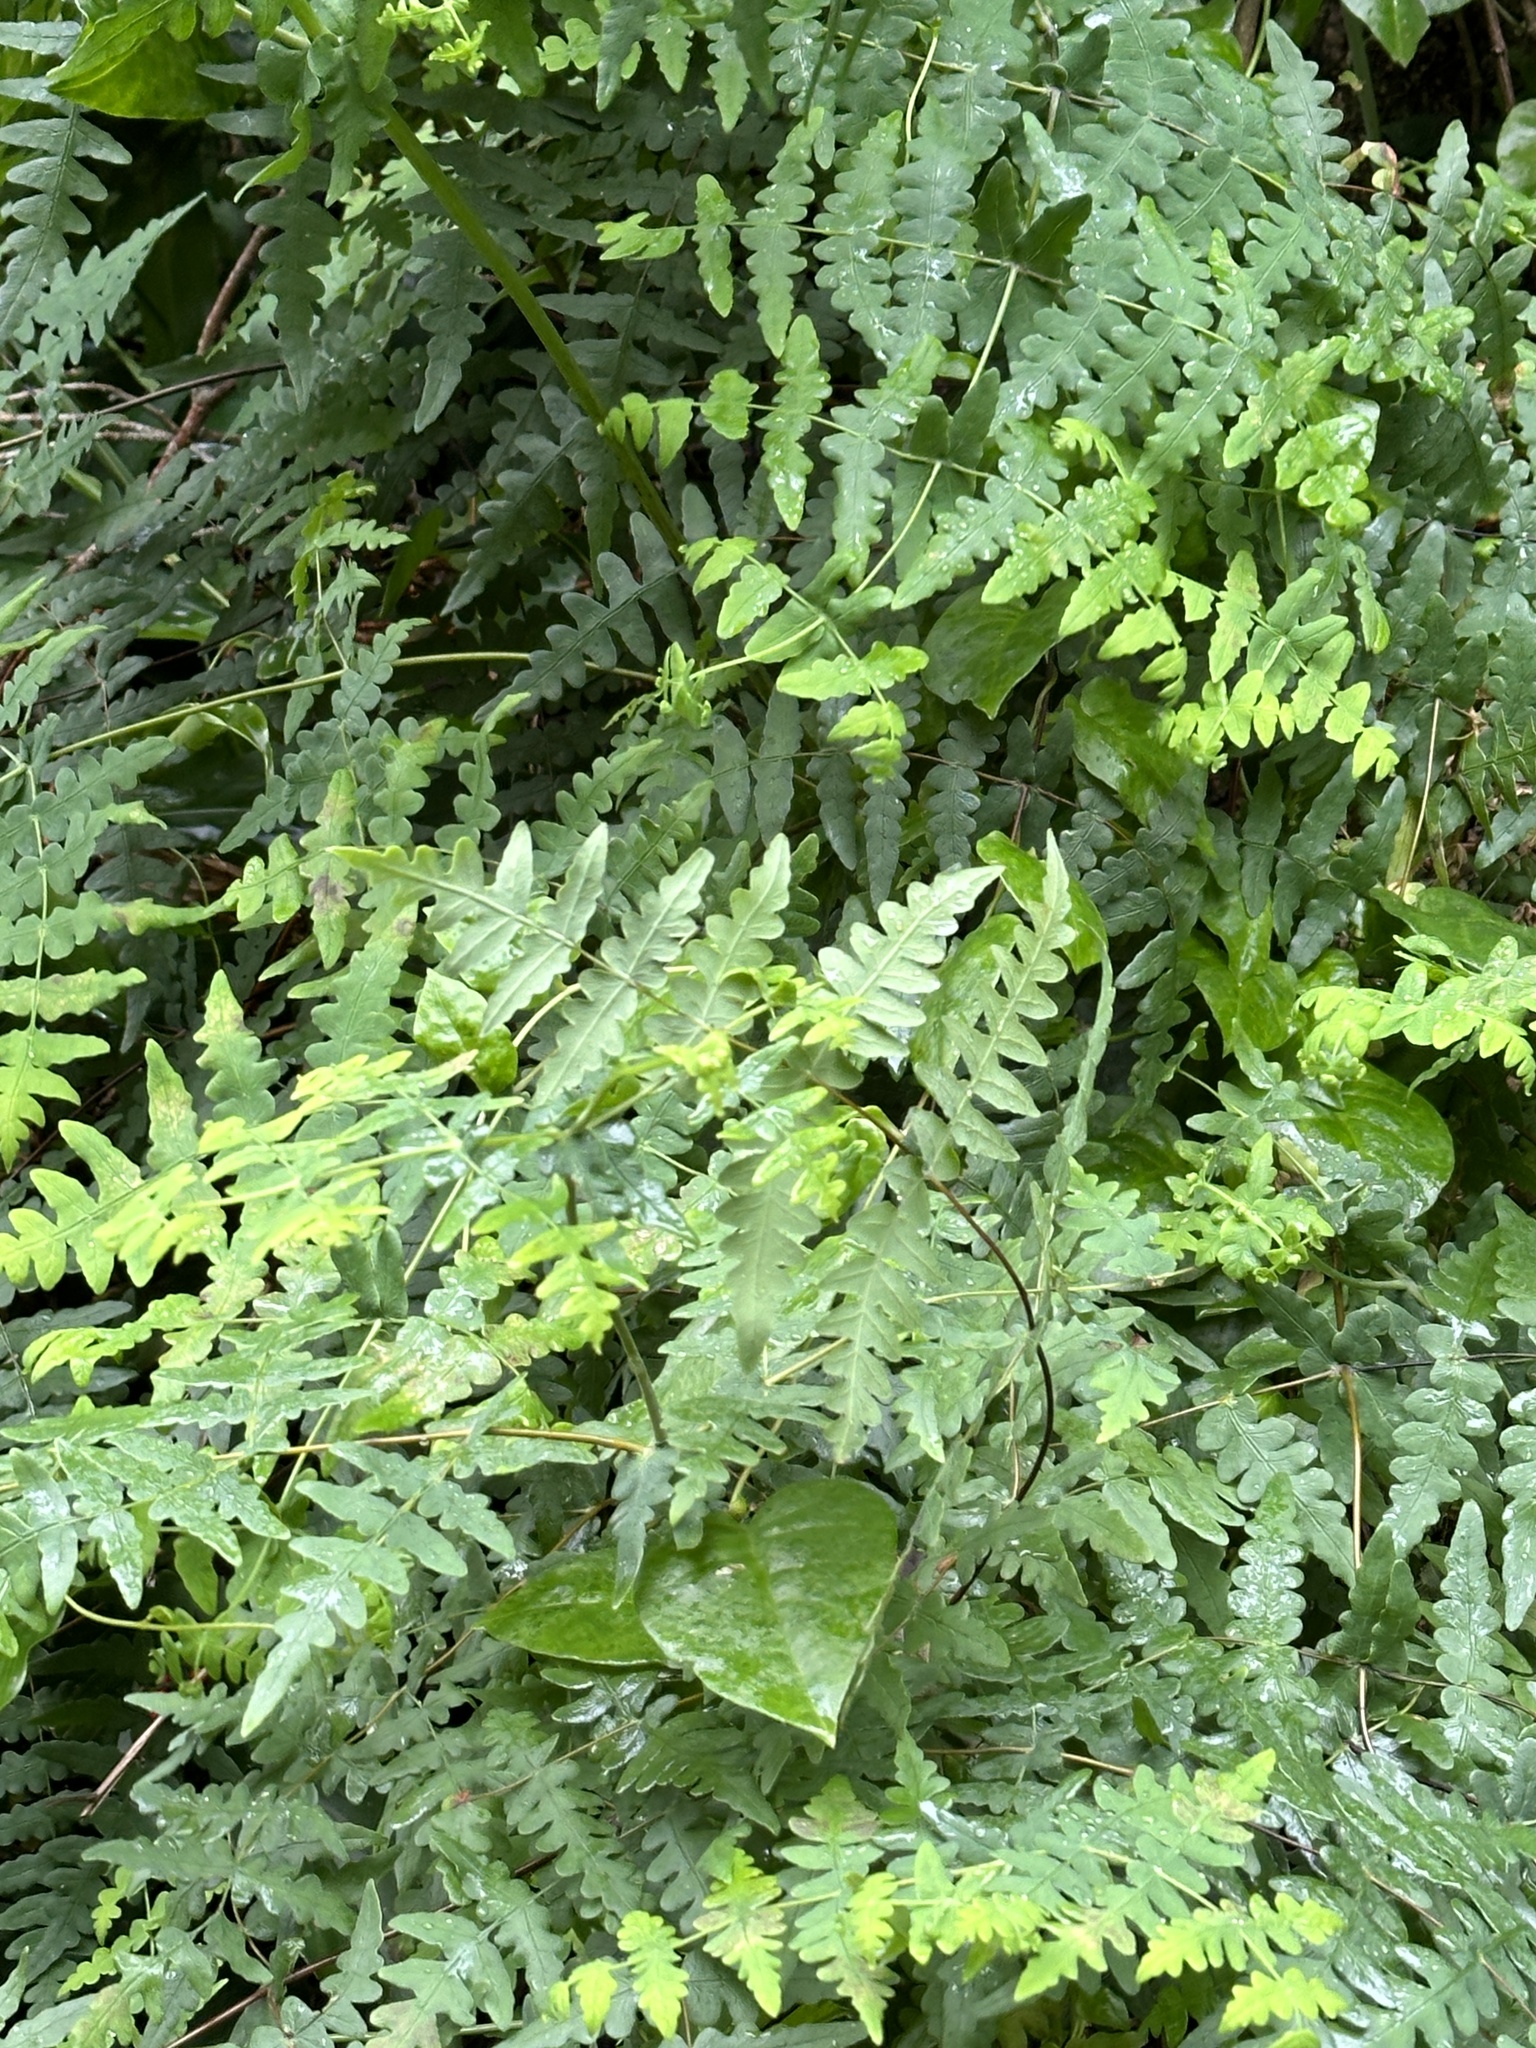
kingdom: Plantae
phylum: Tracheophyta
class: Polypodiopsida
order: Polypodiales
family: Dennstaedtiaceae
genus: Histiopteris
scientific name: Histiopteris incisa
